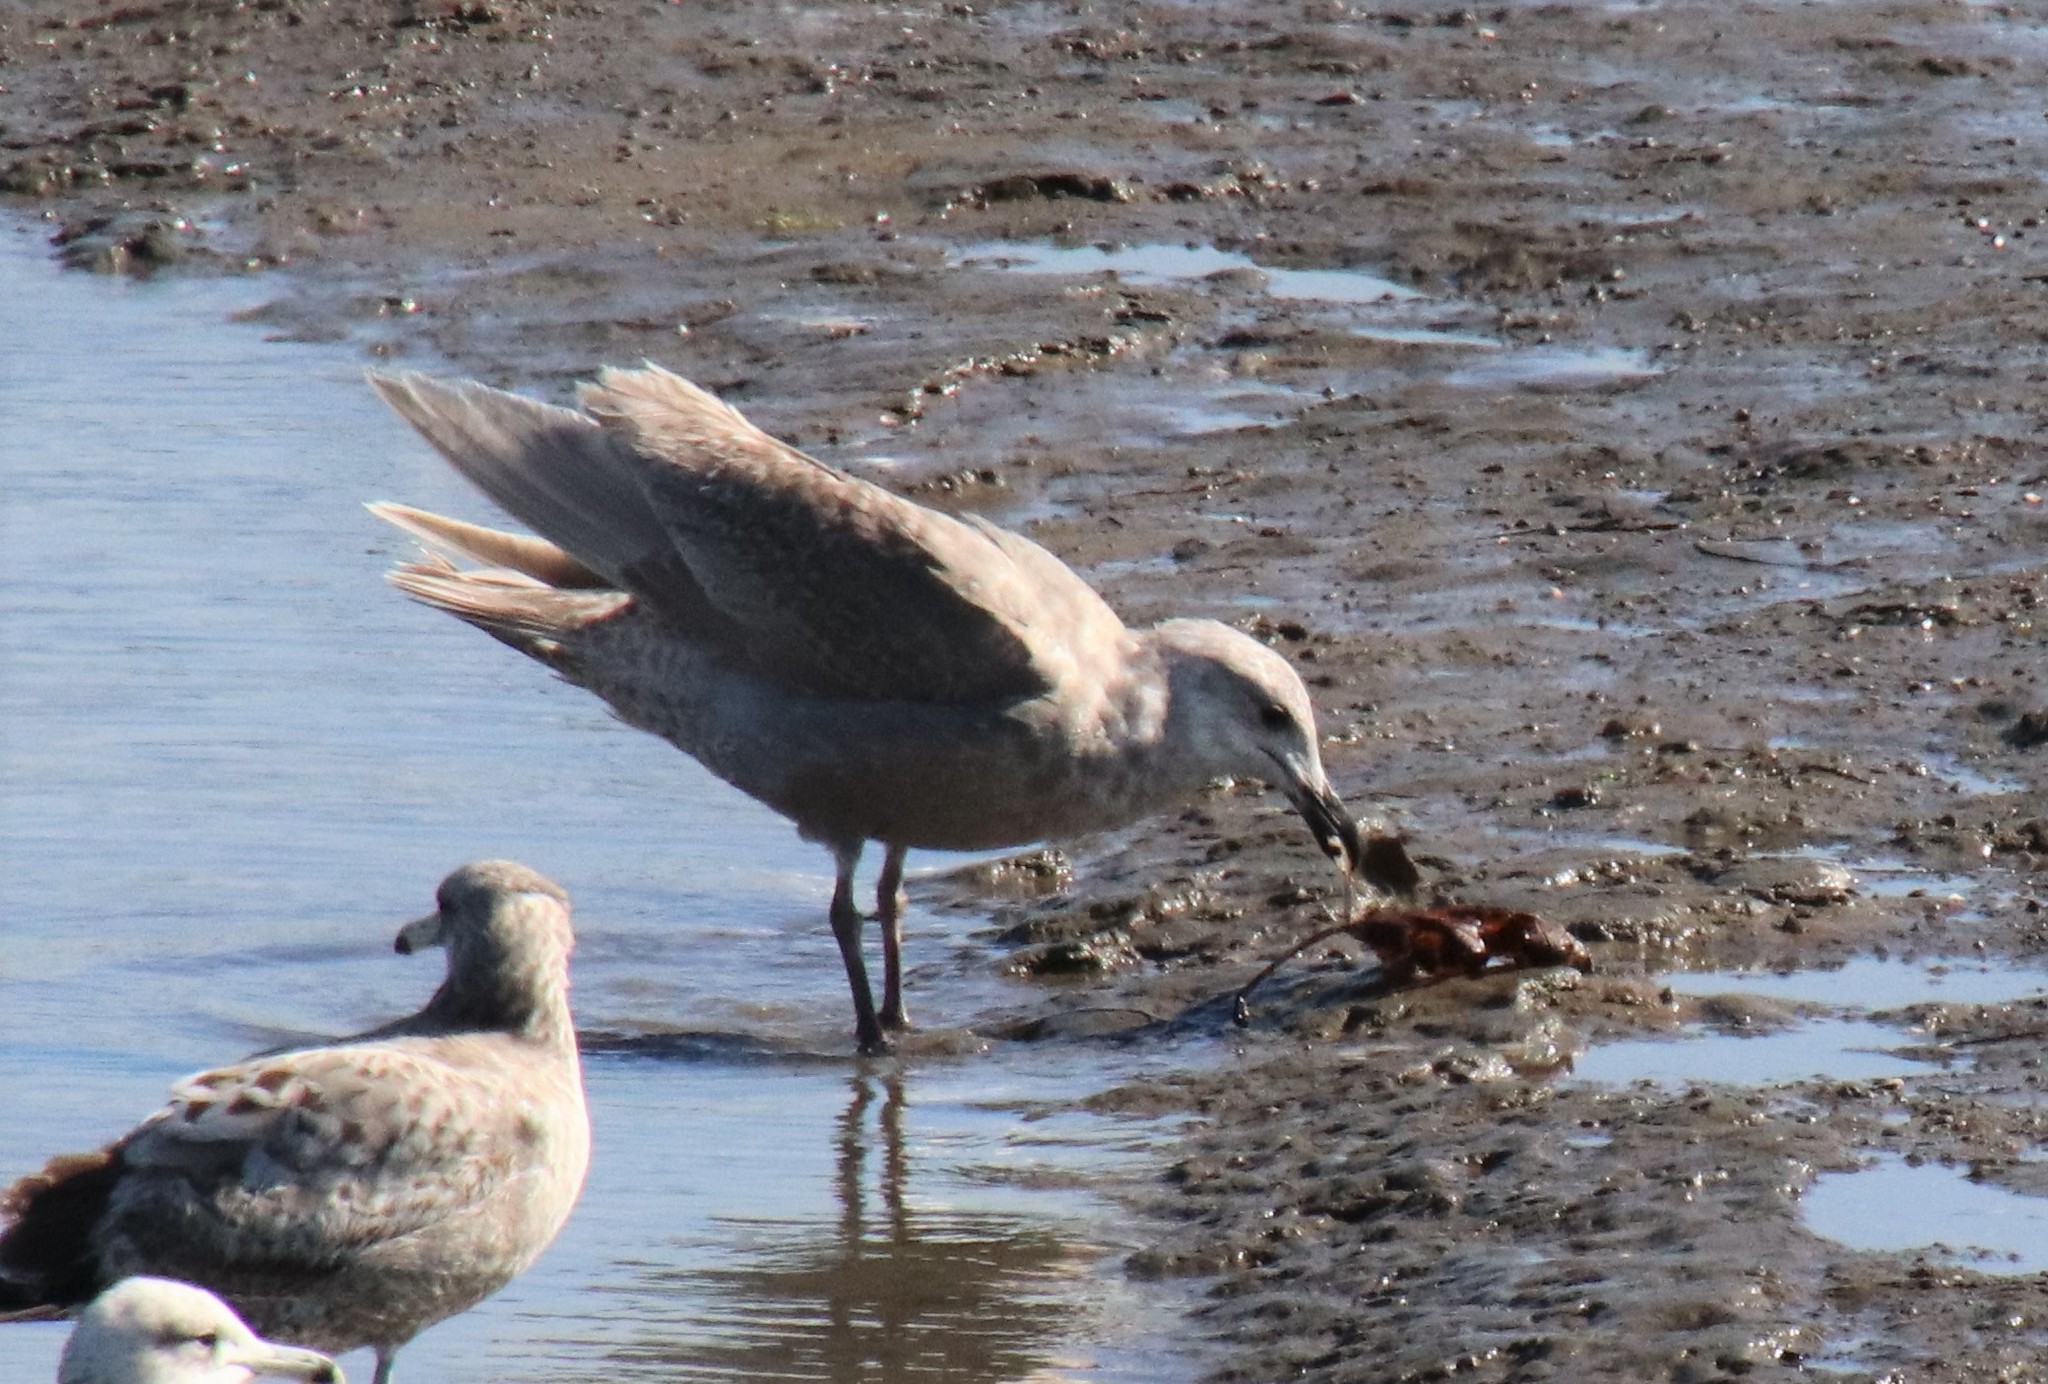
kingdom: Animalia
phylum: Chordata
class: Aves
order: Charadriiformes
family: Laridae
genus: Larus
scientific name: Larus glaucescens
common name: Glaucous-winged gull
